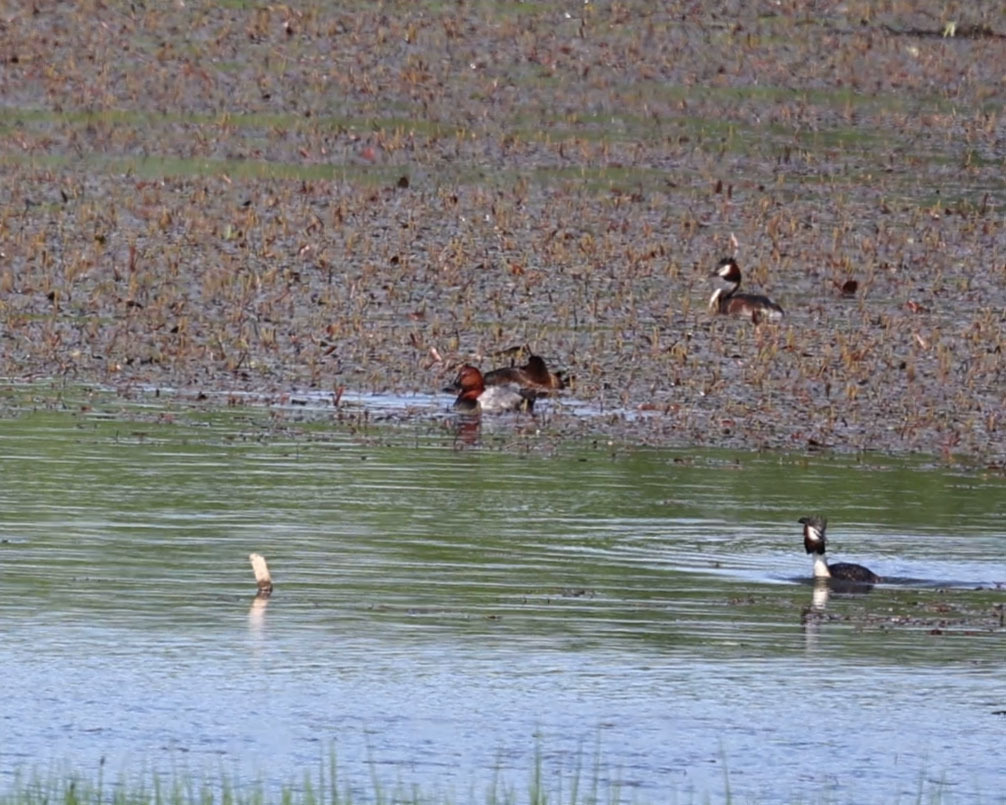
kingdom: Animalia
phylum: Chordata
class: Aves
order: Anseriformes
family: Anatidae
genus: Aythya
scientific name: Aythya ferina
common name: Common pochard
